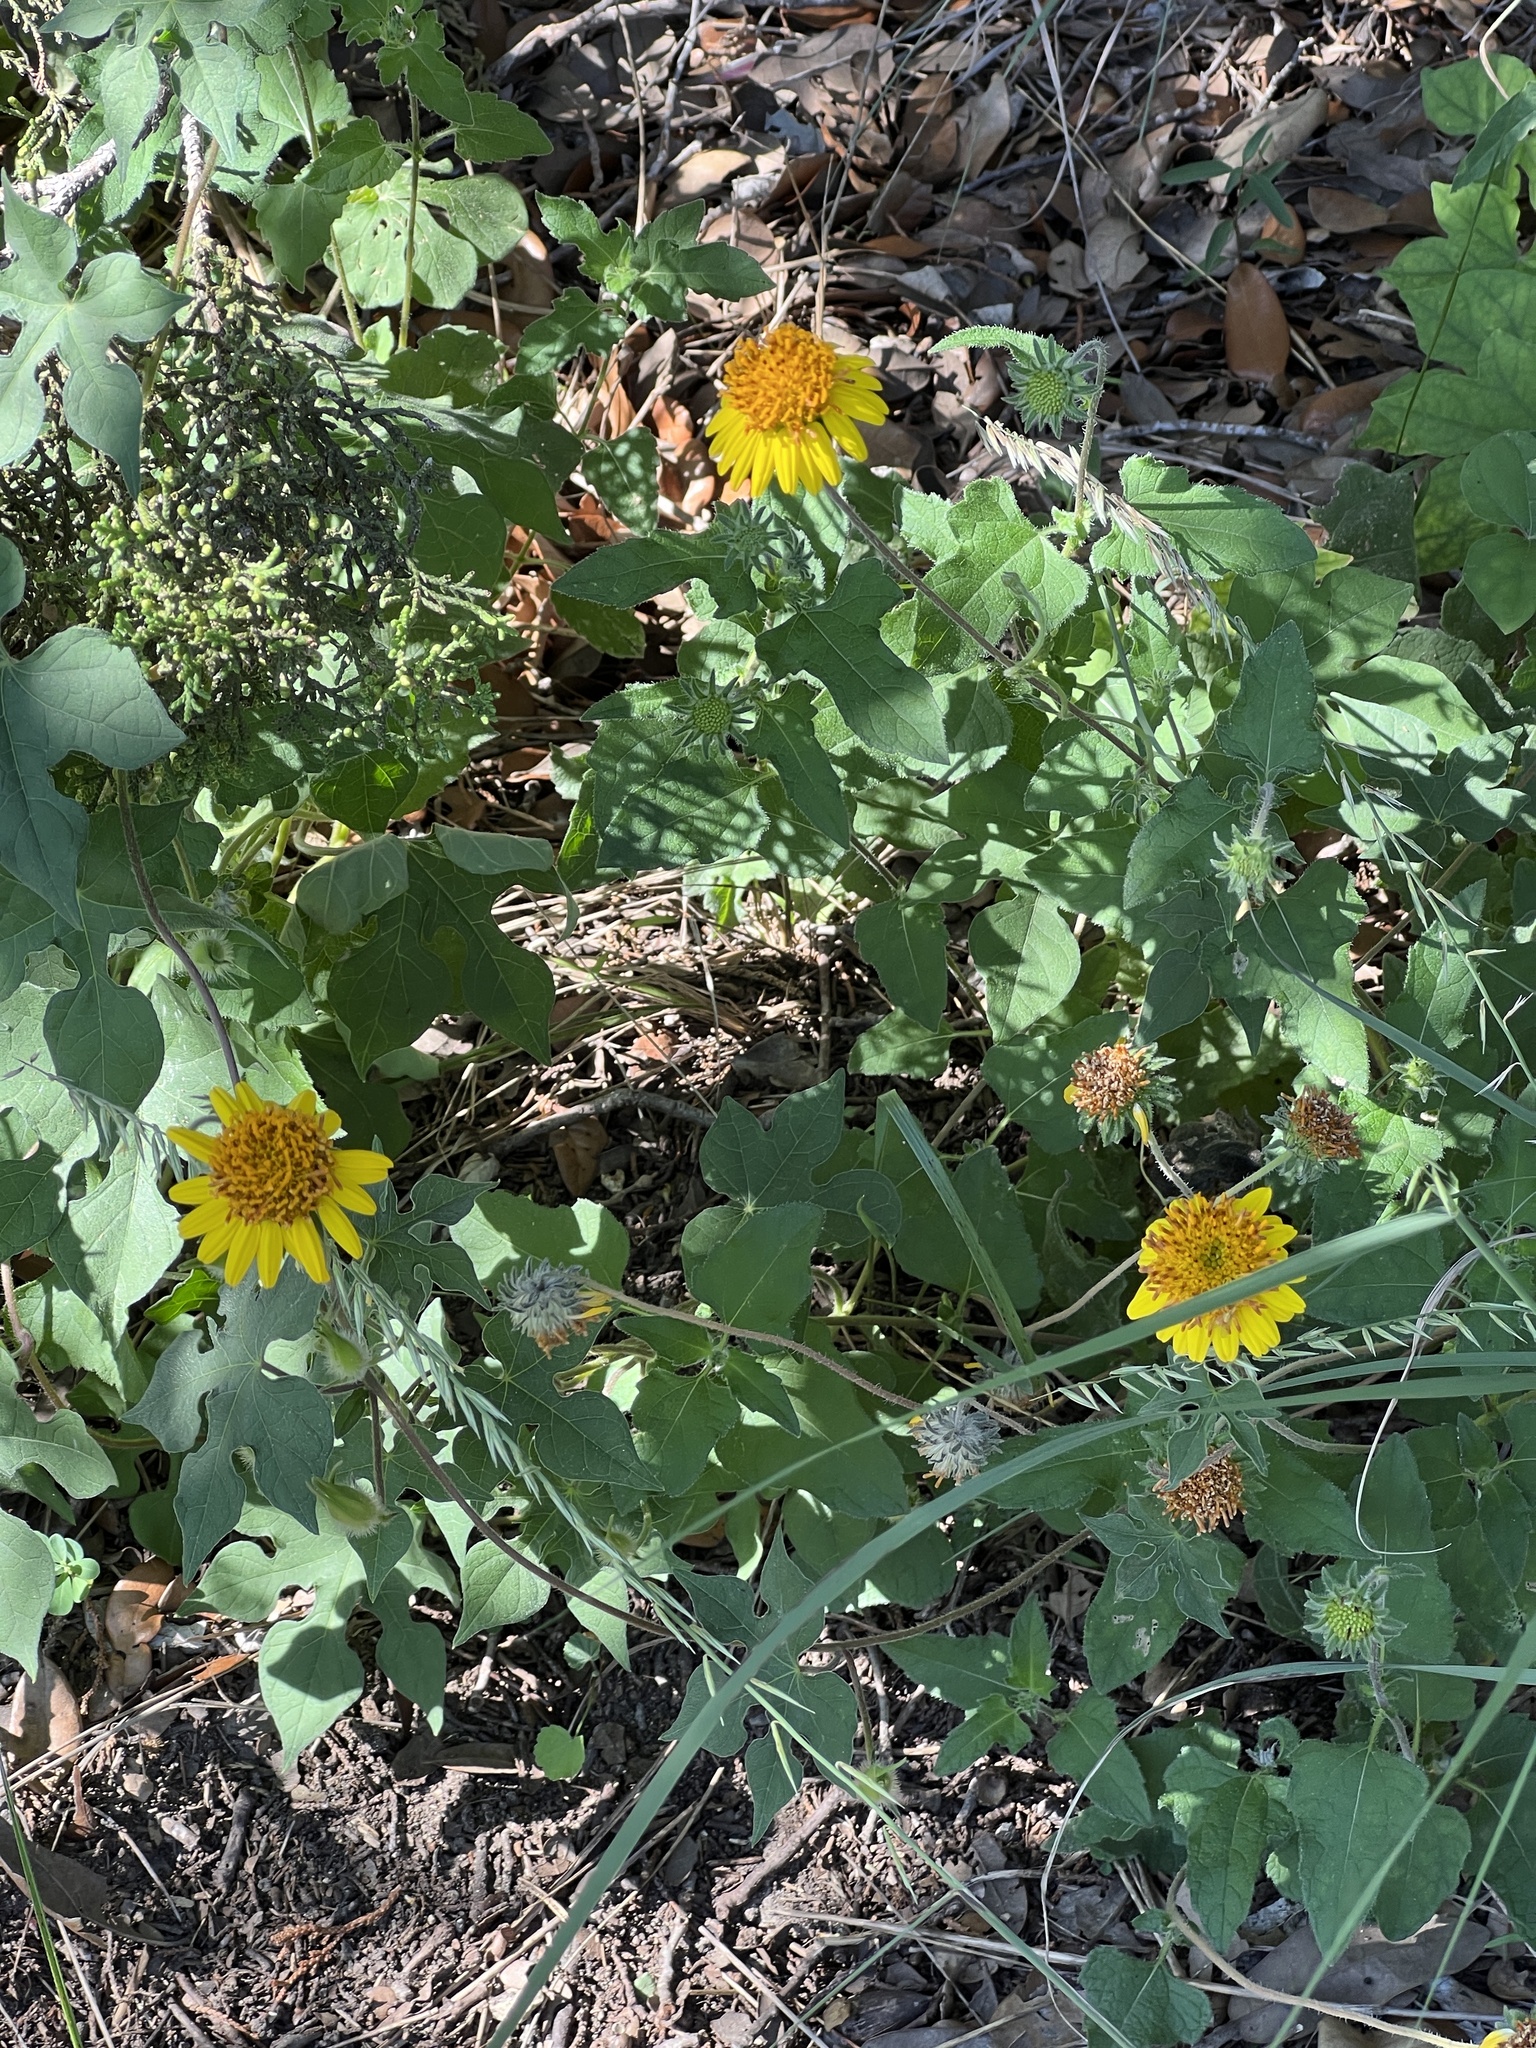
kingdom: Plantae
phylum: Tracheophyta
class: Magnoliopsida
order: Asterales
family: Asteraceae
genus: Simsia
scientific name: Simsia calva
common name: Awnless bush-sunflower
